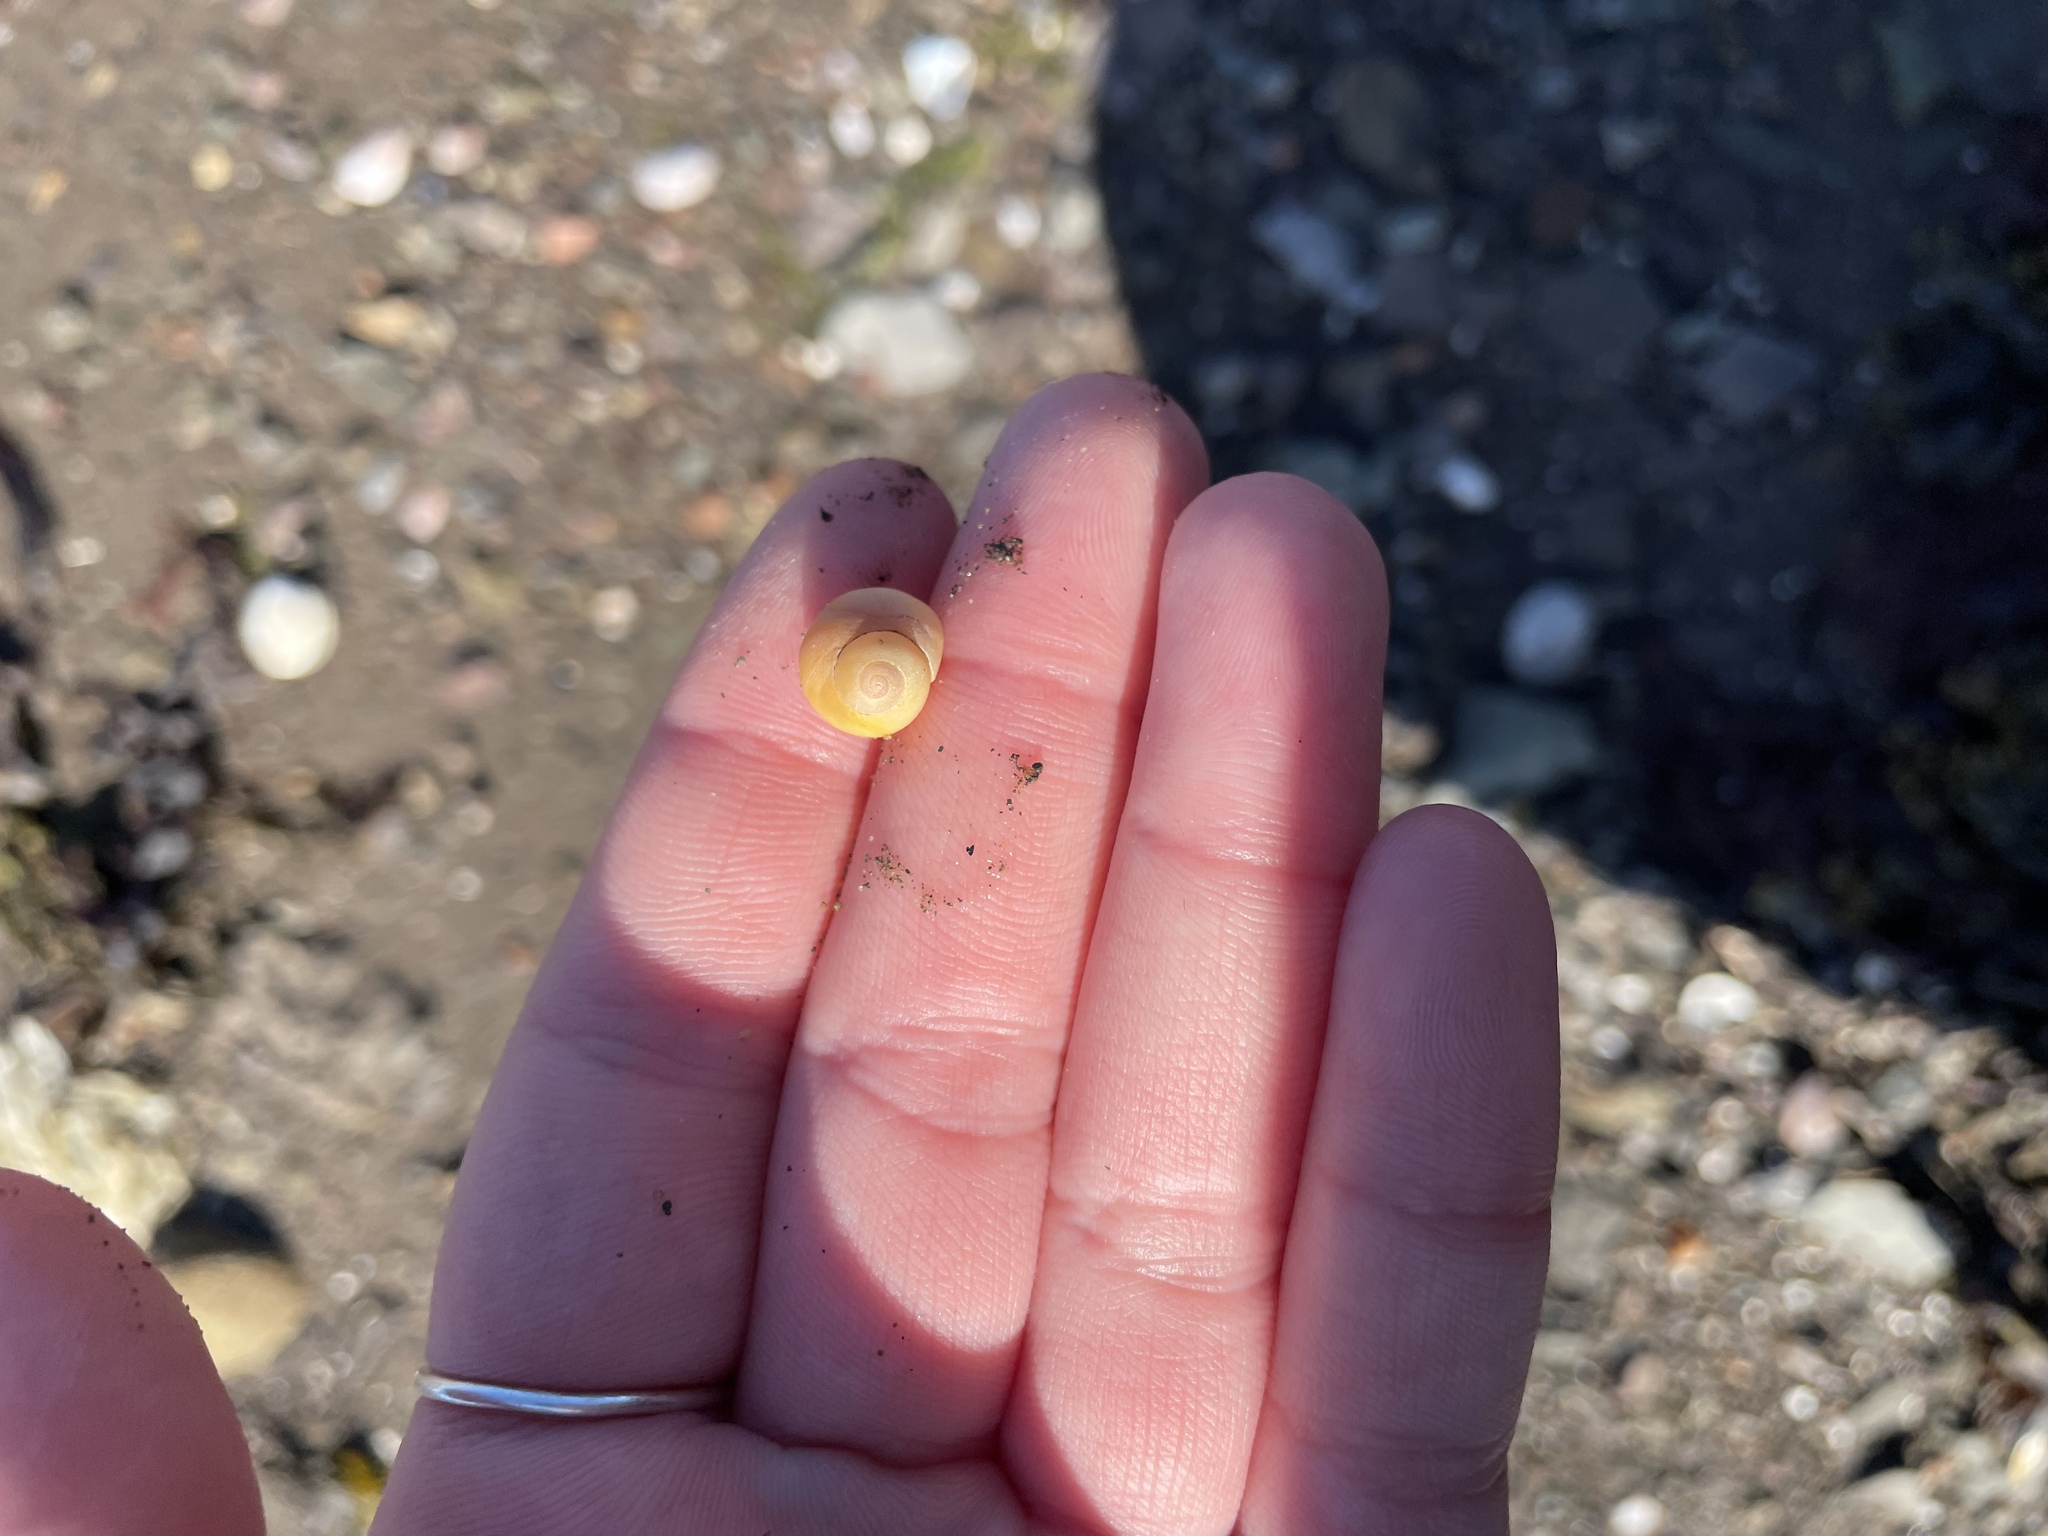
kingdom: Animalia
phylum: Mollusca
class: Gastropoda
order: Littorinimorpha
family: Littorinidae
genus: Littorina
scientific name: Littorina obtusata
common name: Flat periwinkle
